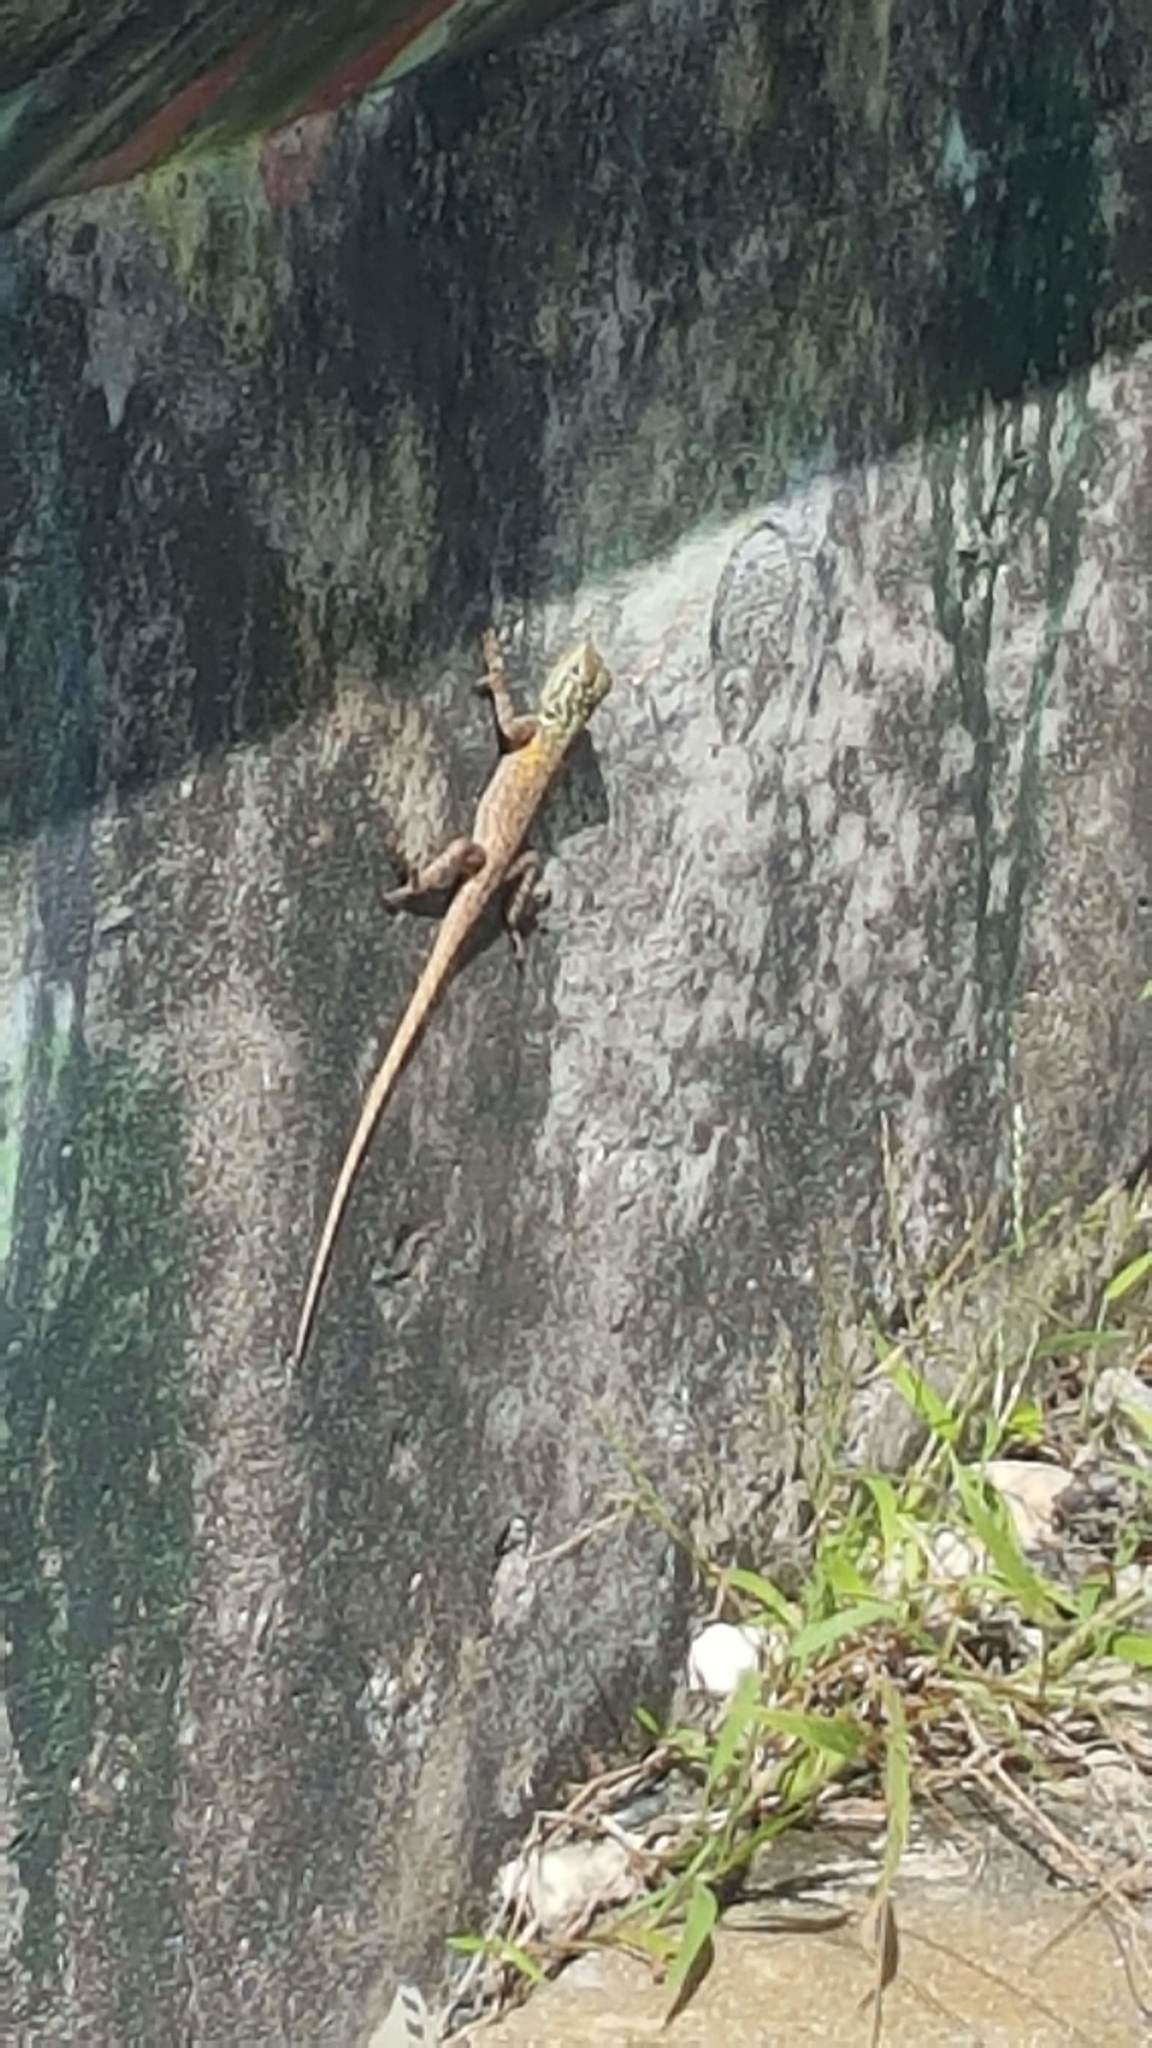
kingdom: Animalia
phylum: Chordata
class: Squamata
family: Agamidae
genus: Agama
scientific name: Agama picticauda
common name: Red-headed agama
